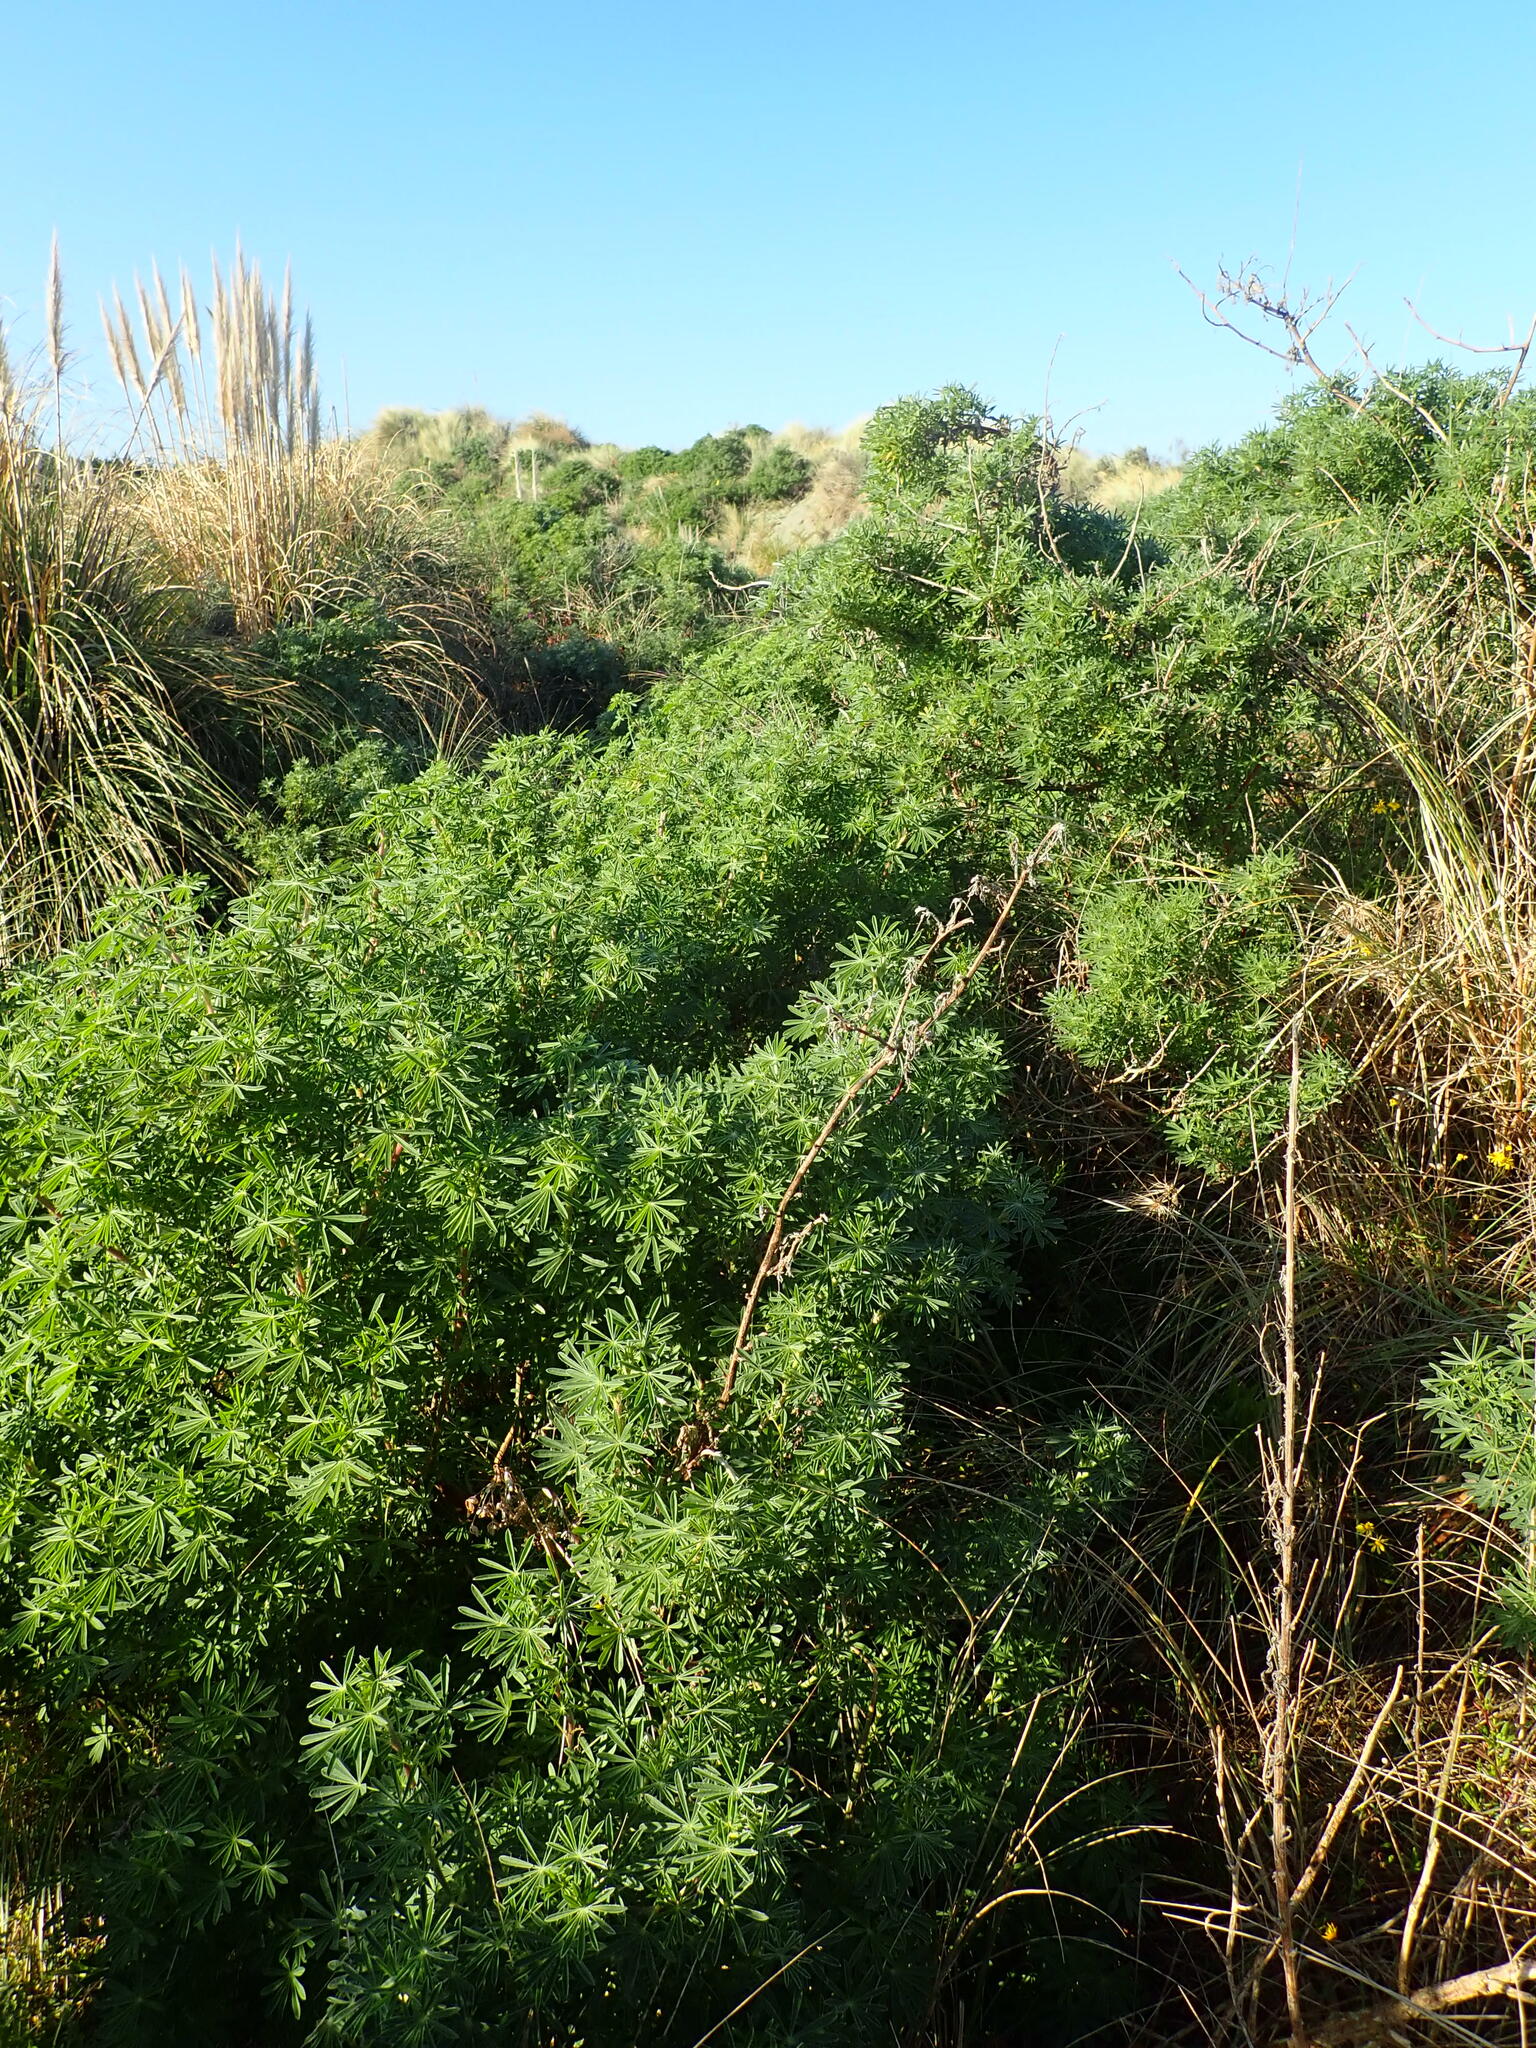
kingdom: Plantae
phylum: Tracheophyta
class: Magnoliopsida
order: Fabales
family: Fabaceae
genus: Lupinus
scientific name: Lupinus arboreus
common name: Yellow bush lupine
